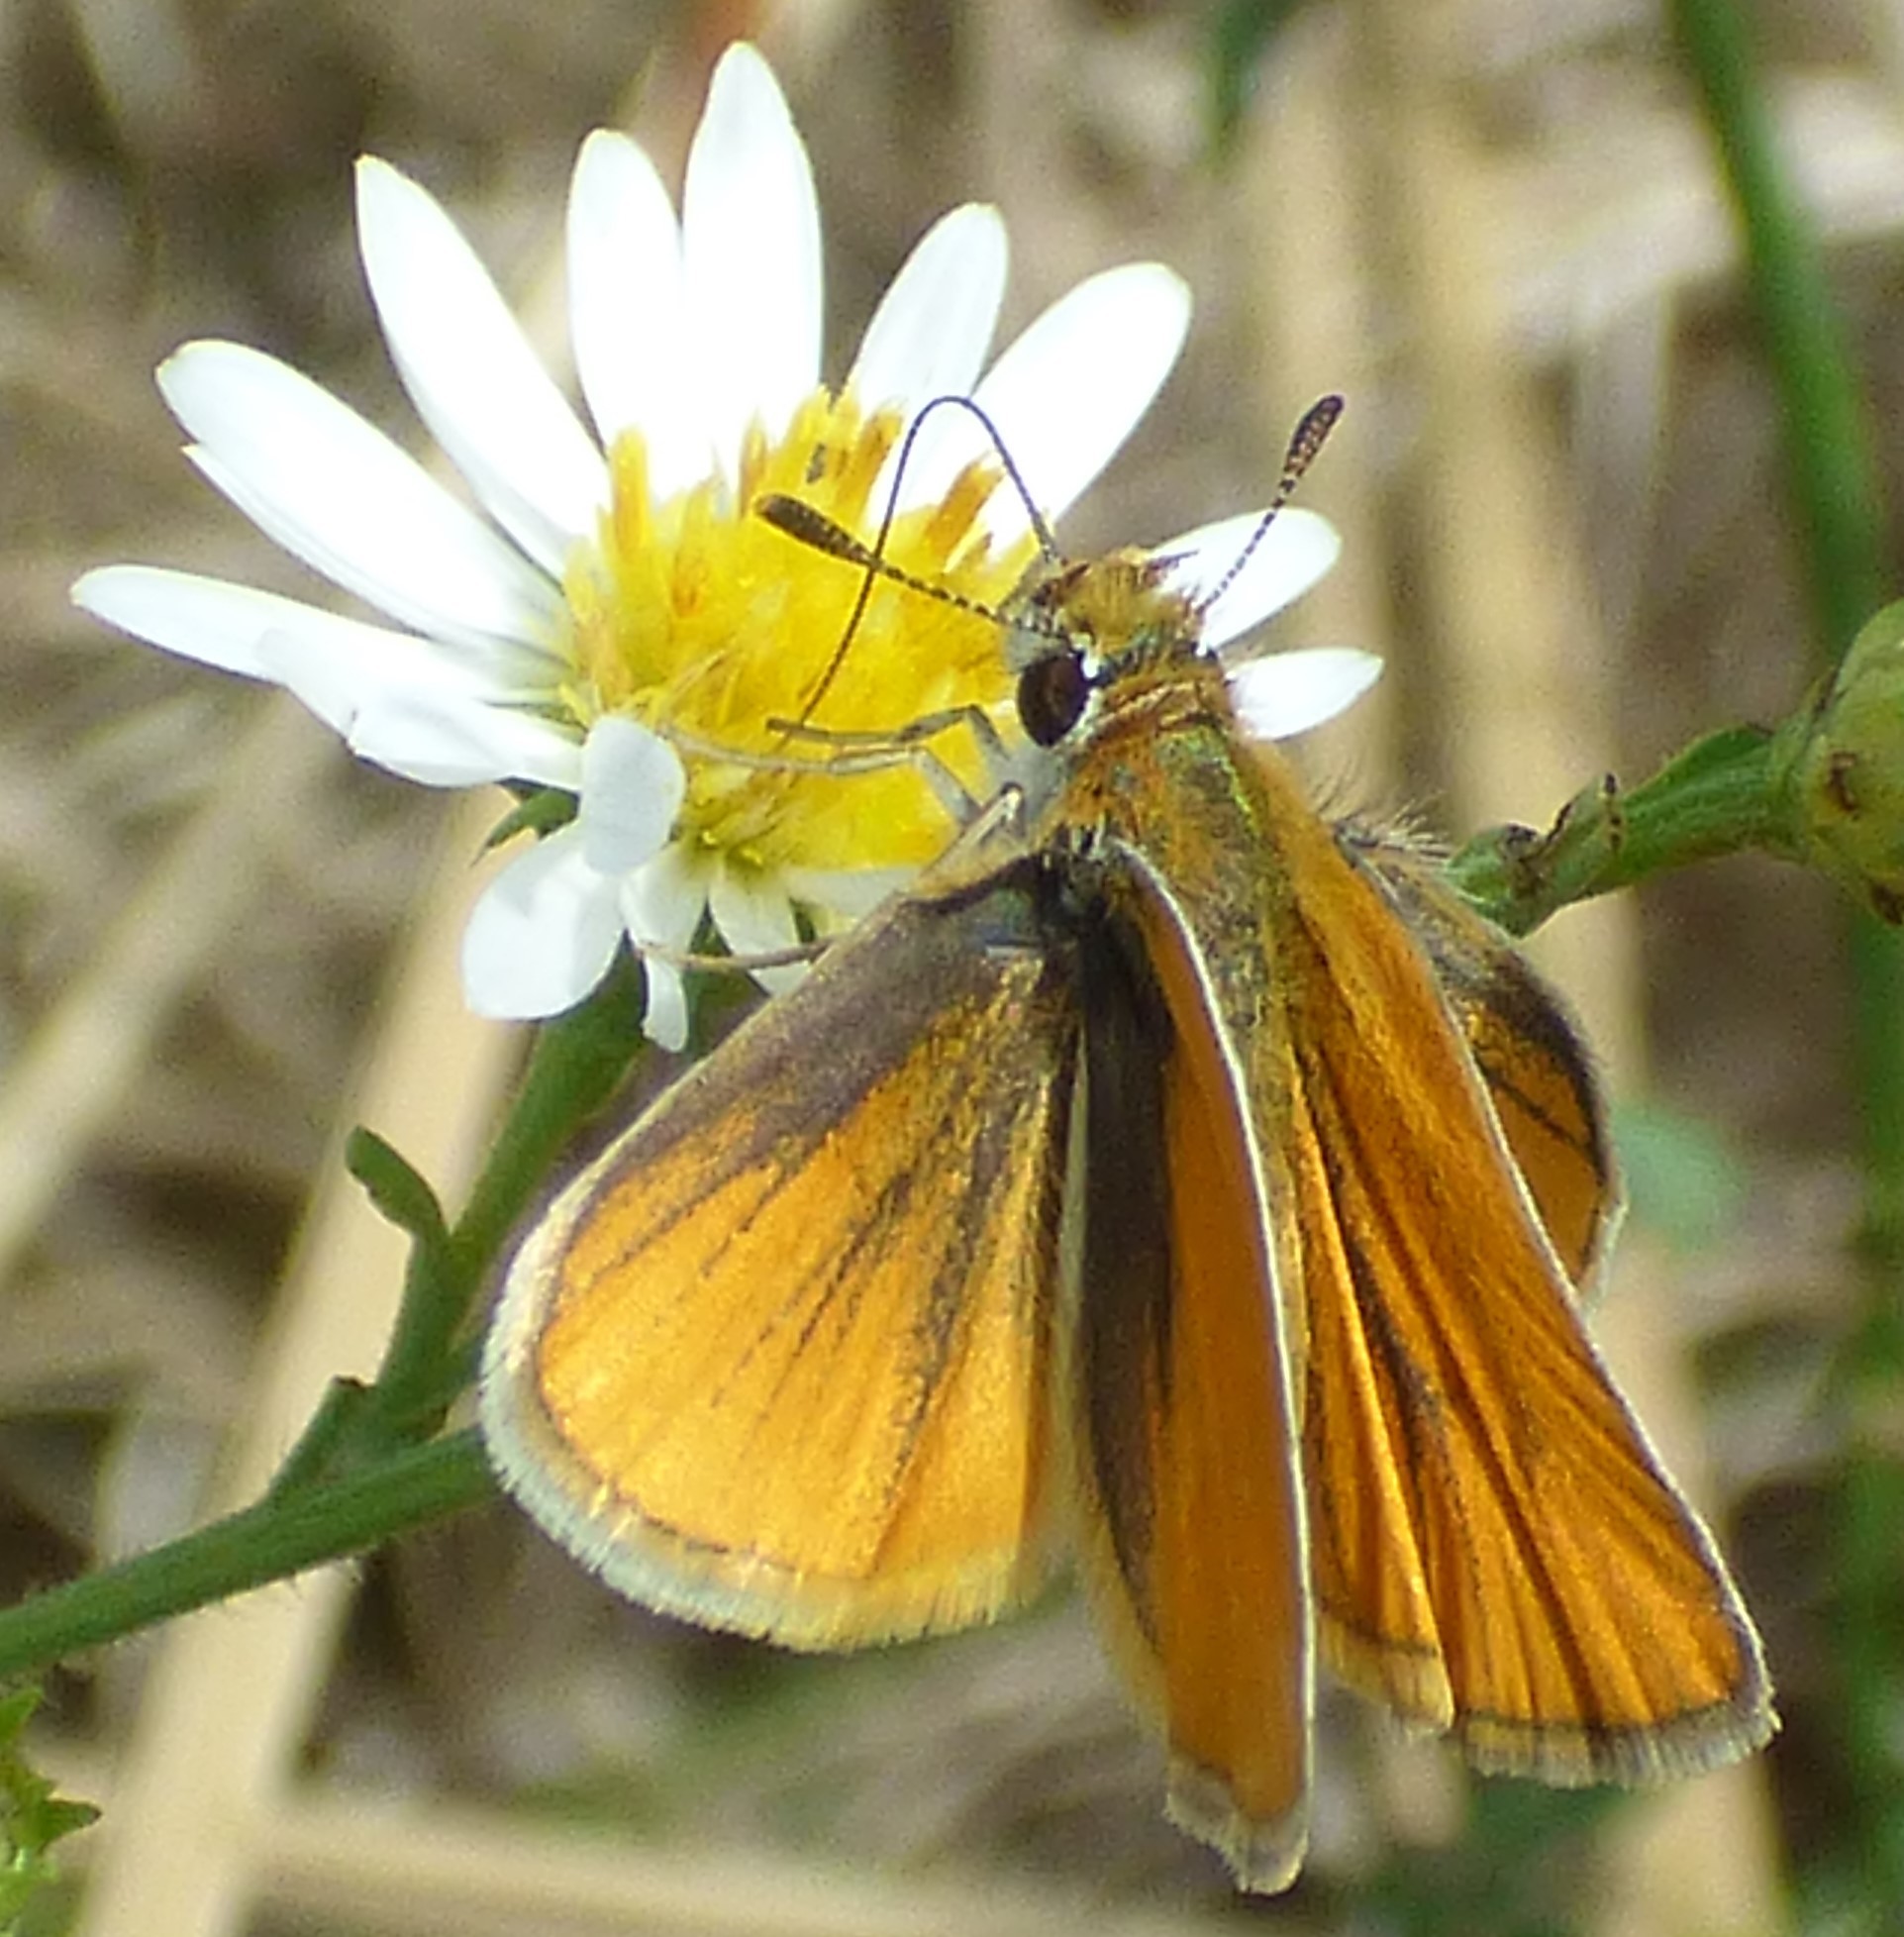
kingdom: Animalia
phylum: Arthropoda
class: Insecta
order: Lepidoptera
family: Hesperiidae
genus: Copaeodes
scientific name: Copaeodes minima
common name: Southern skipperling
